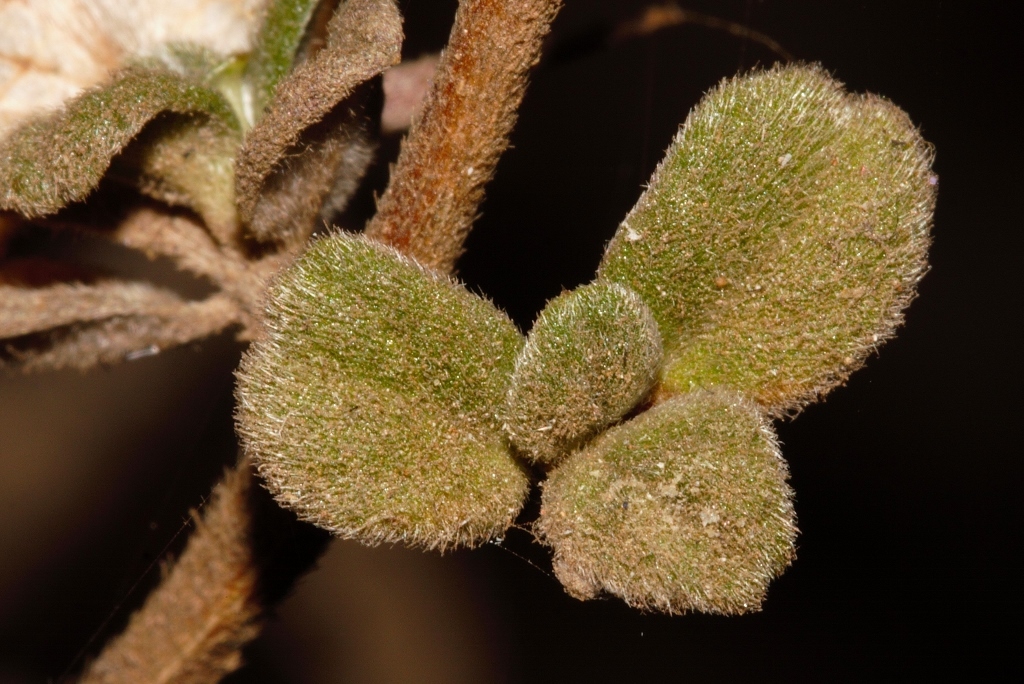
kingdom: Plantae
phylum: Tracheophyta
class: Magnoliopsida
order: Lamiales
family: Acanthaceae
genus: Barleria
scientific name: Barleria crassa
